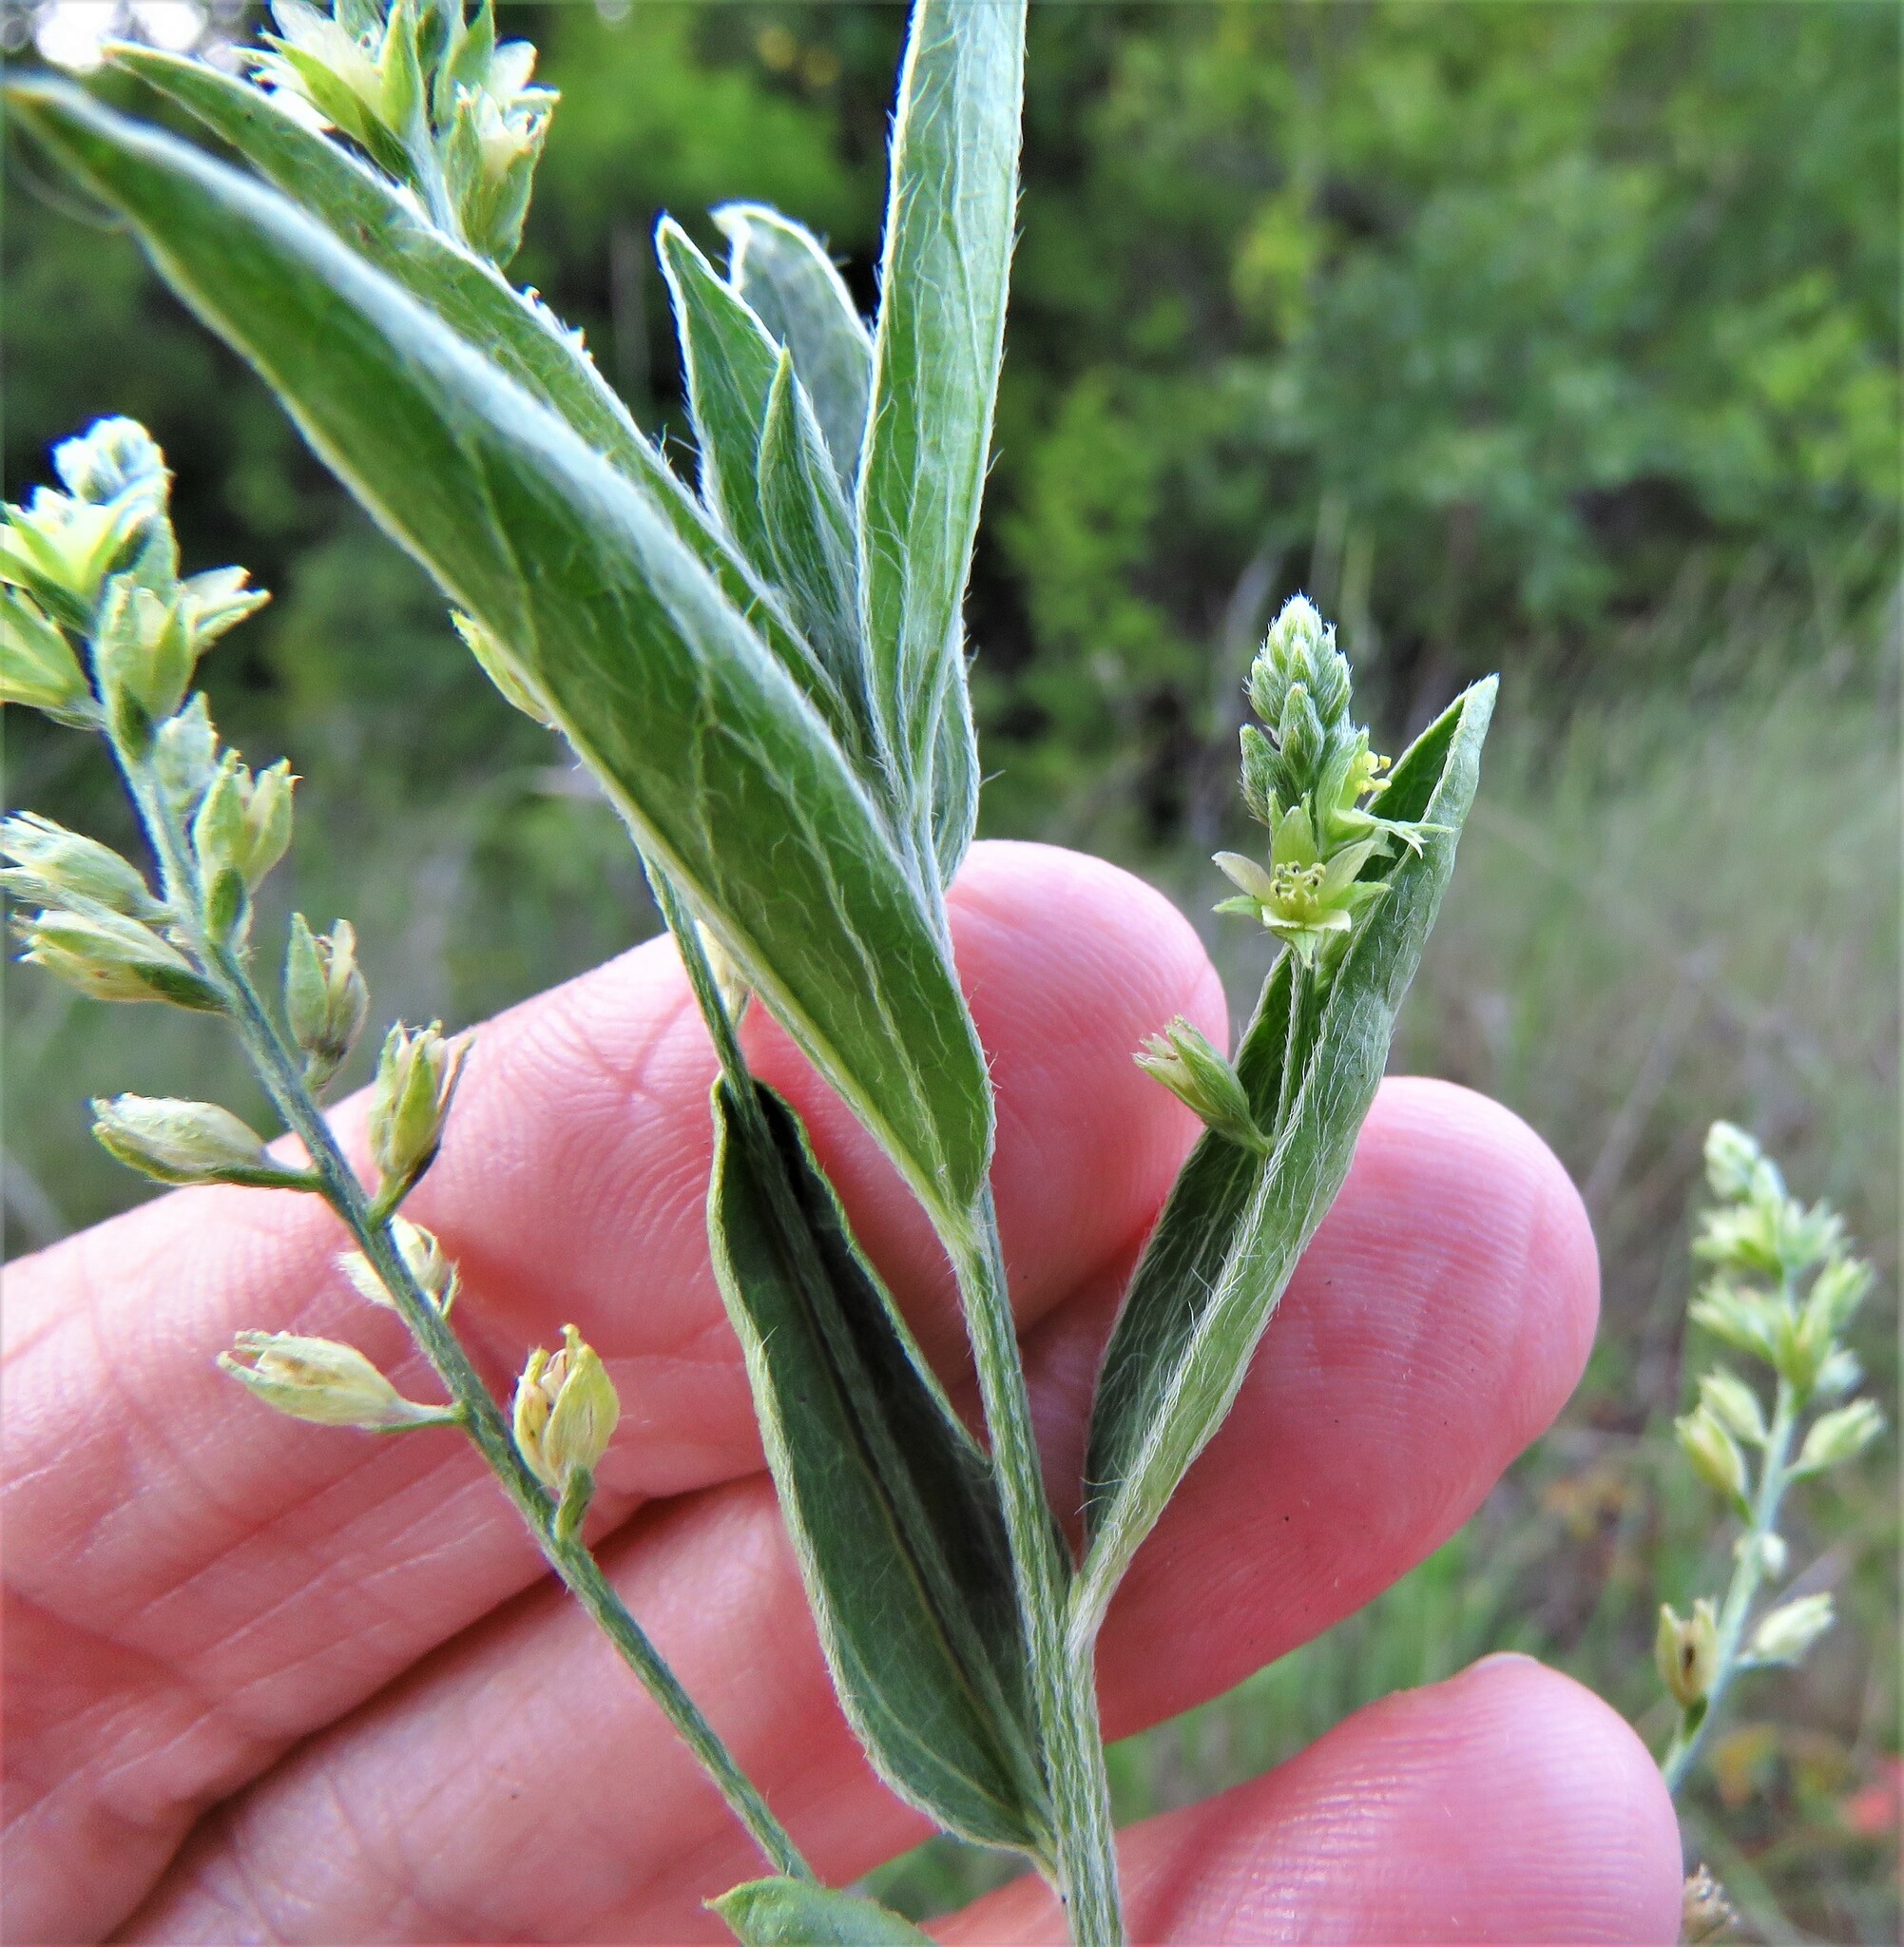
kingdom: Plantae
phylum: Tracheophyta
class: Magnoliopsida
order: Malpighiales
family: Euphorbiaceae
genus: Ditaxis
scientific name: Ditaxis mercurialina
